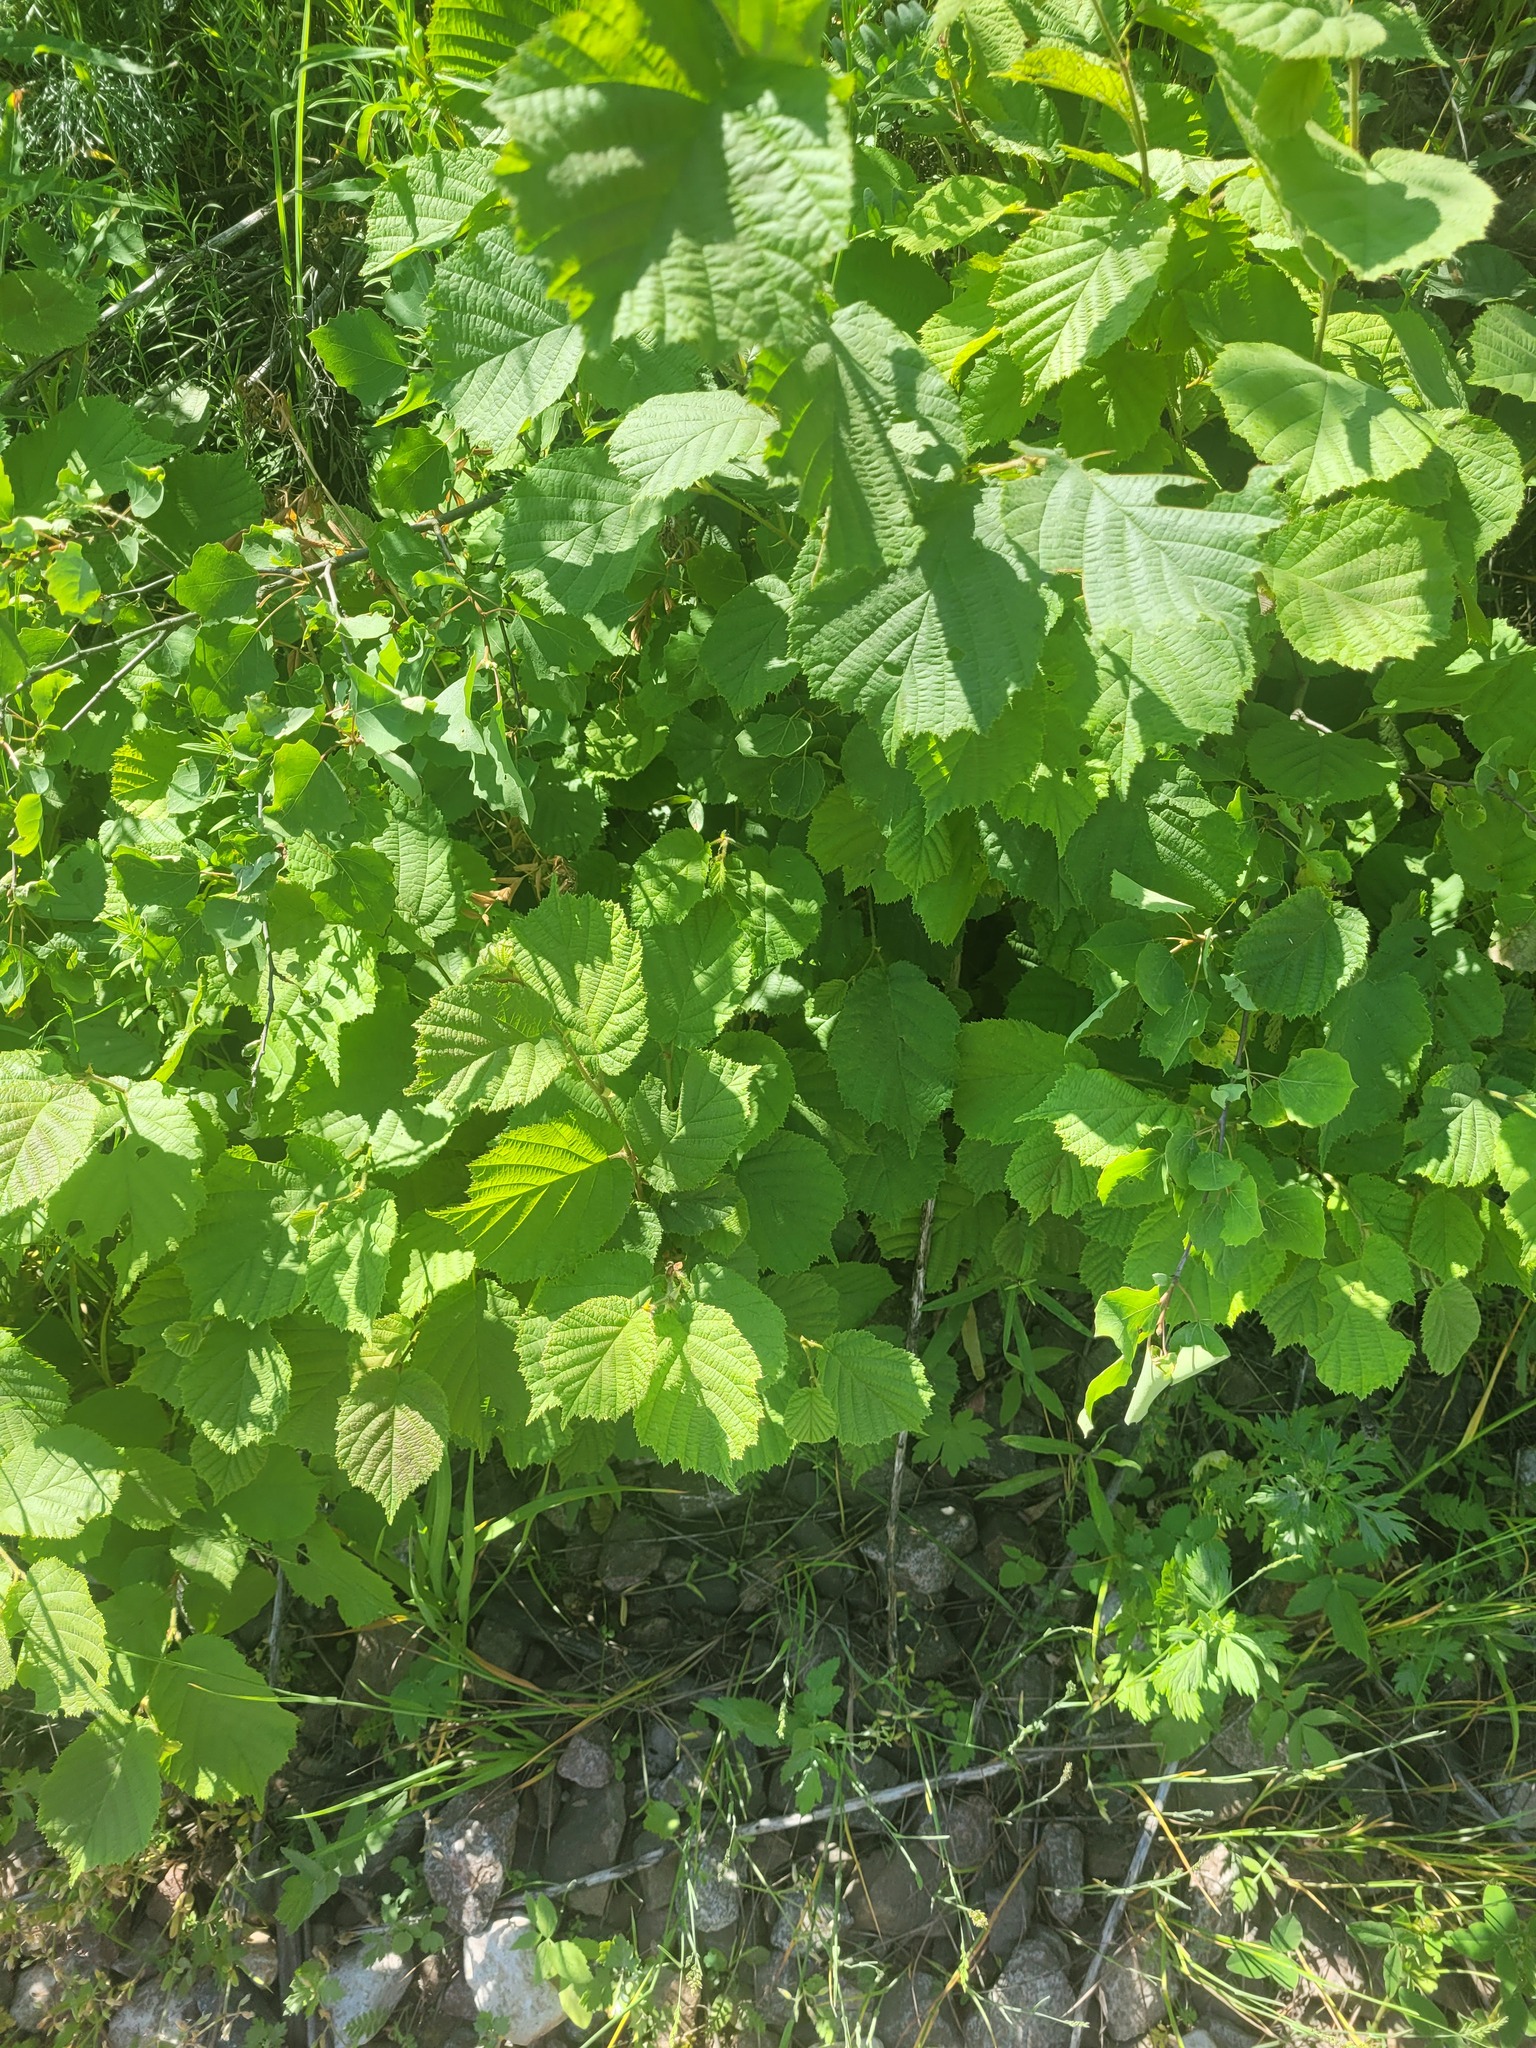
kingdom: Plantae
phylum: Tracheophyta
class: Magnoliopsida
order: Fagales
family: Betulaceae
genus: Corylus
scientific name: Corylus avellana
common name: European hazel
